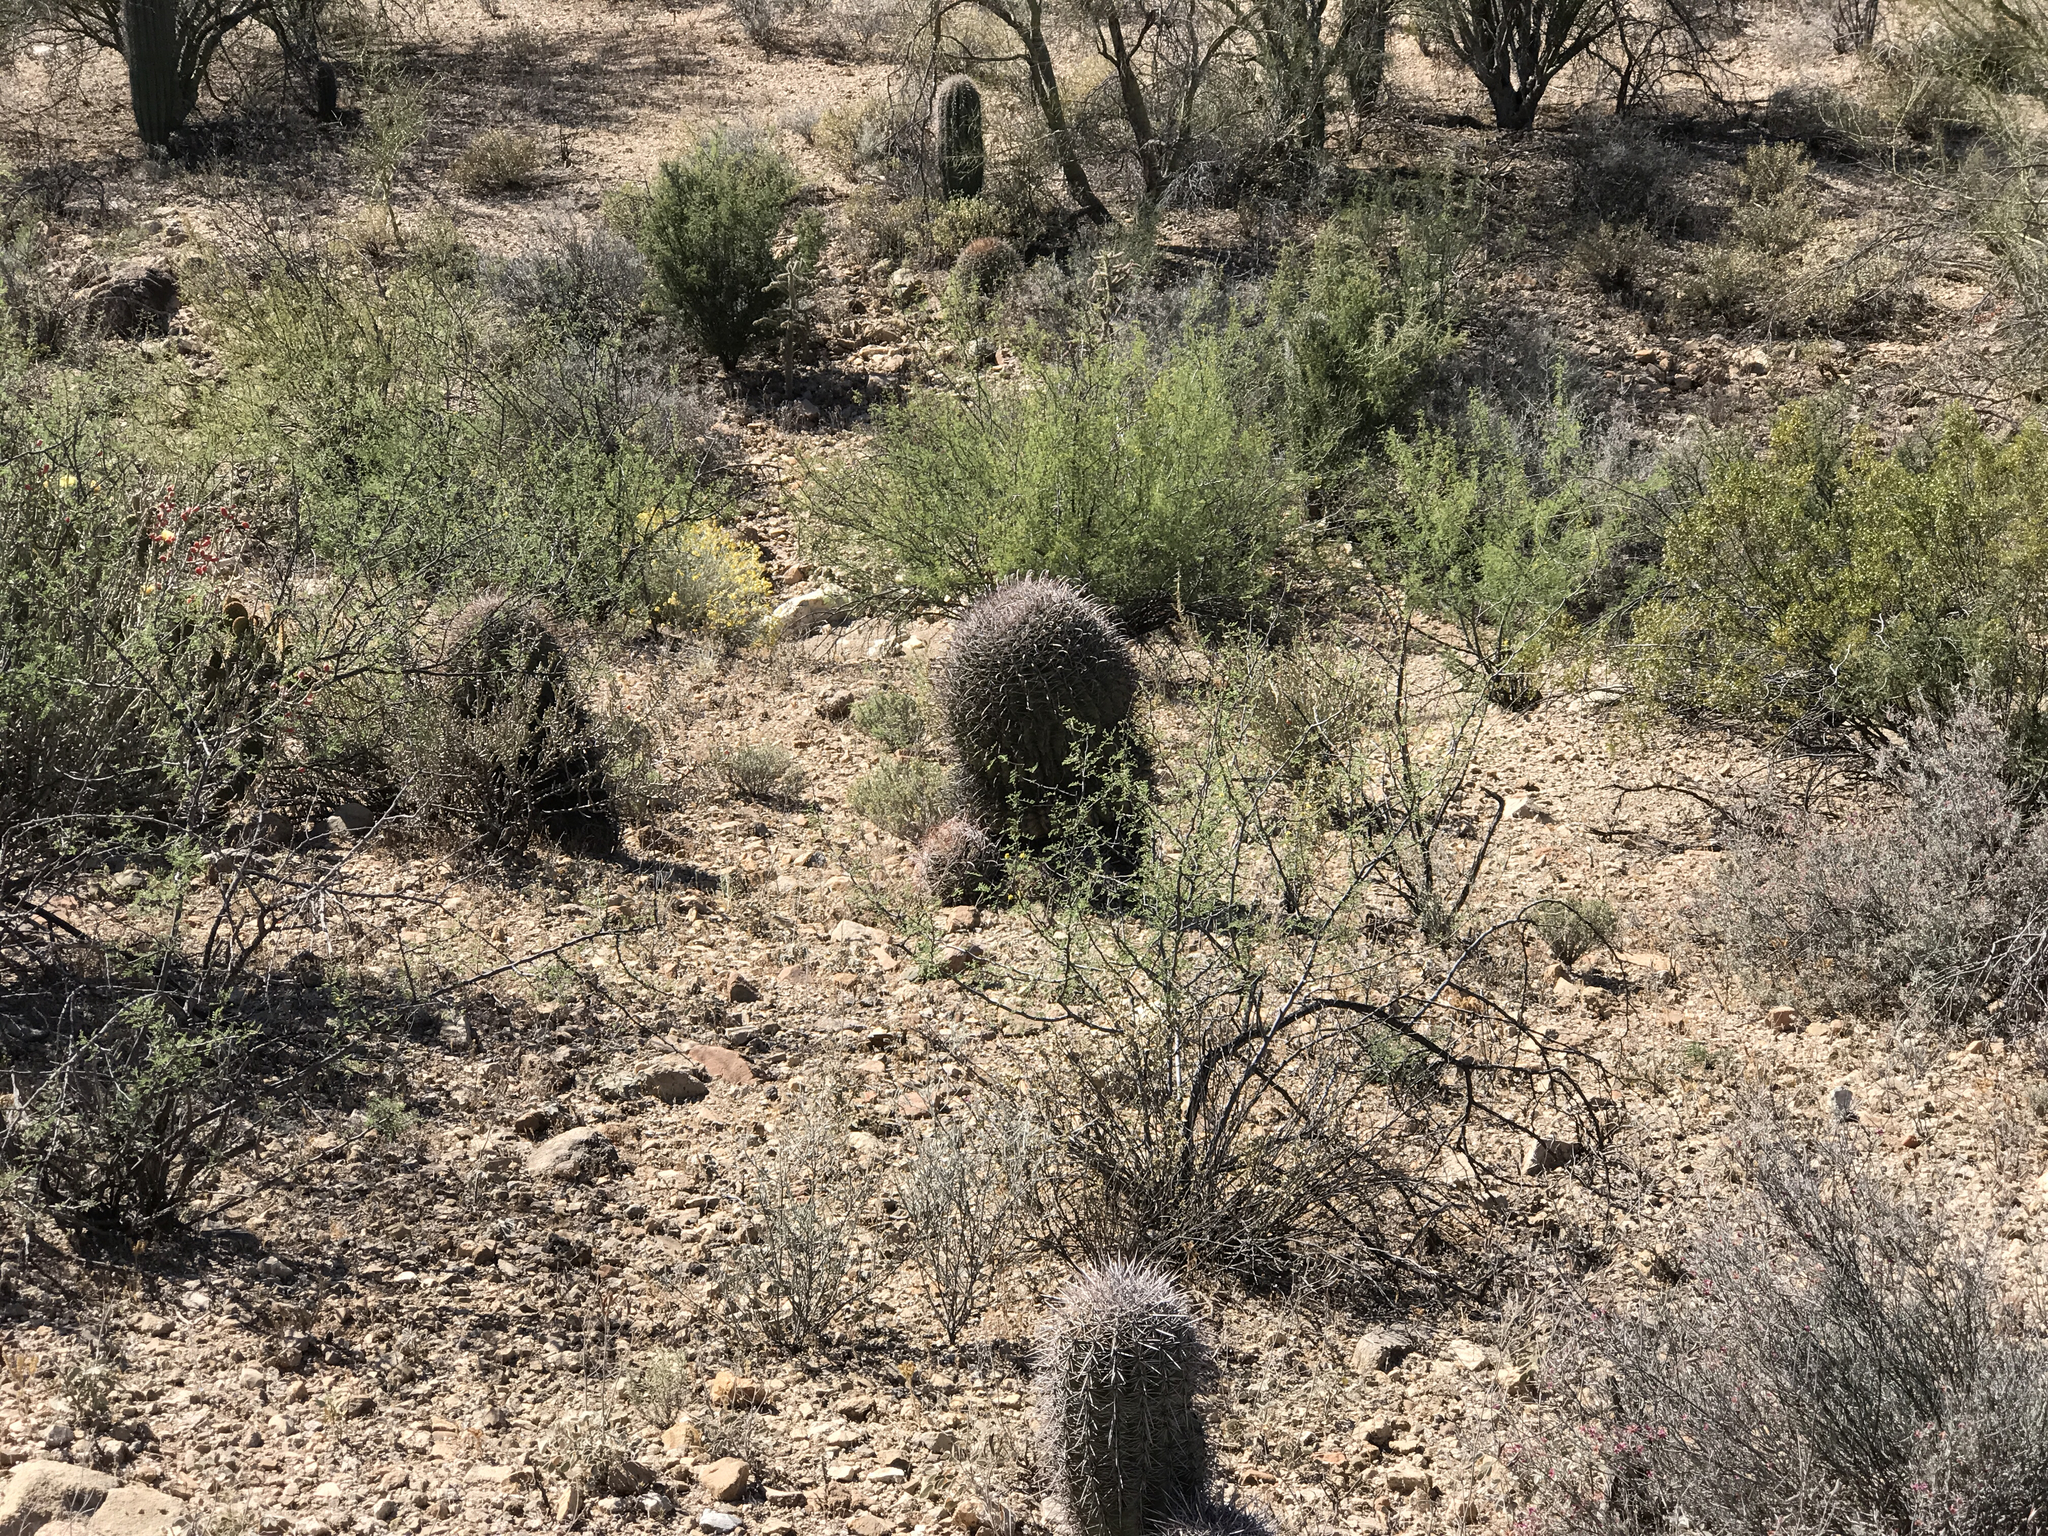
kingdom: Plantae
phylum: Tracheophyta
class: Magnoliopsida
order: Caryophyllales
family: Cactaceae
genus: Ferocactus
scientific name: Ferocactus wislizeni
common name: Candy barrel cactus
